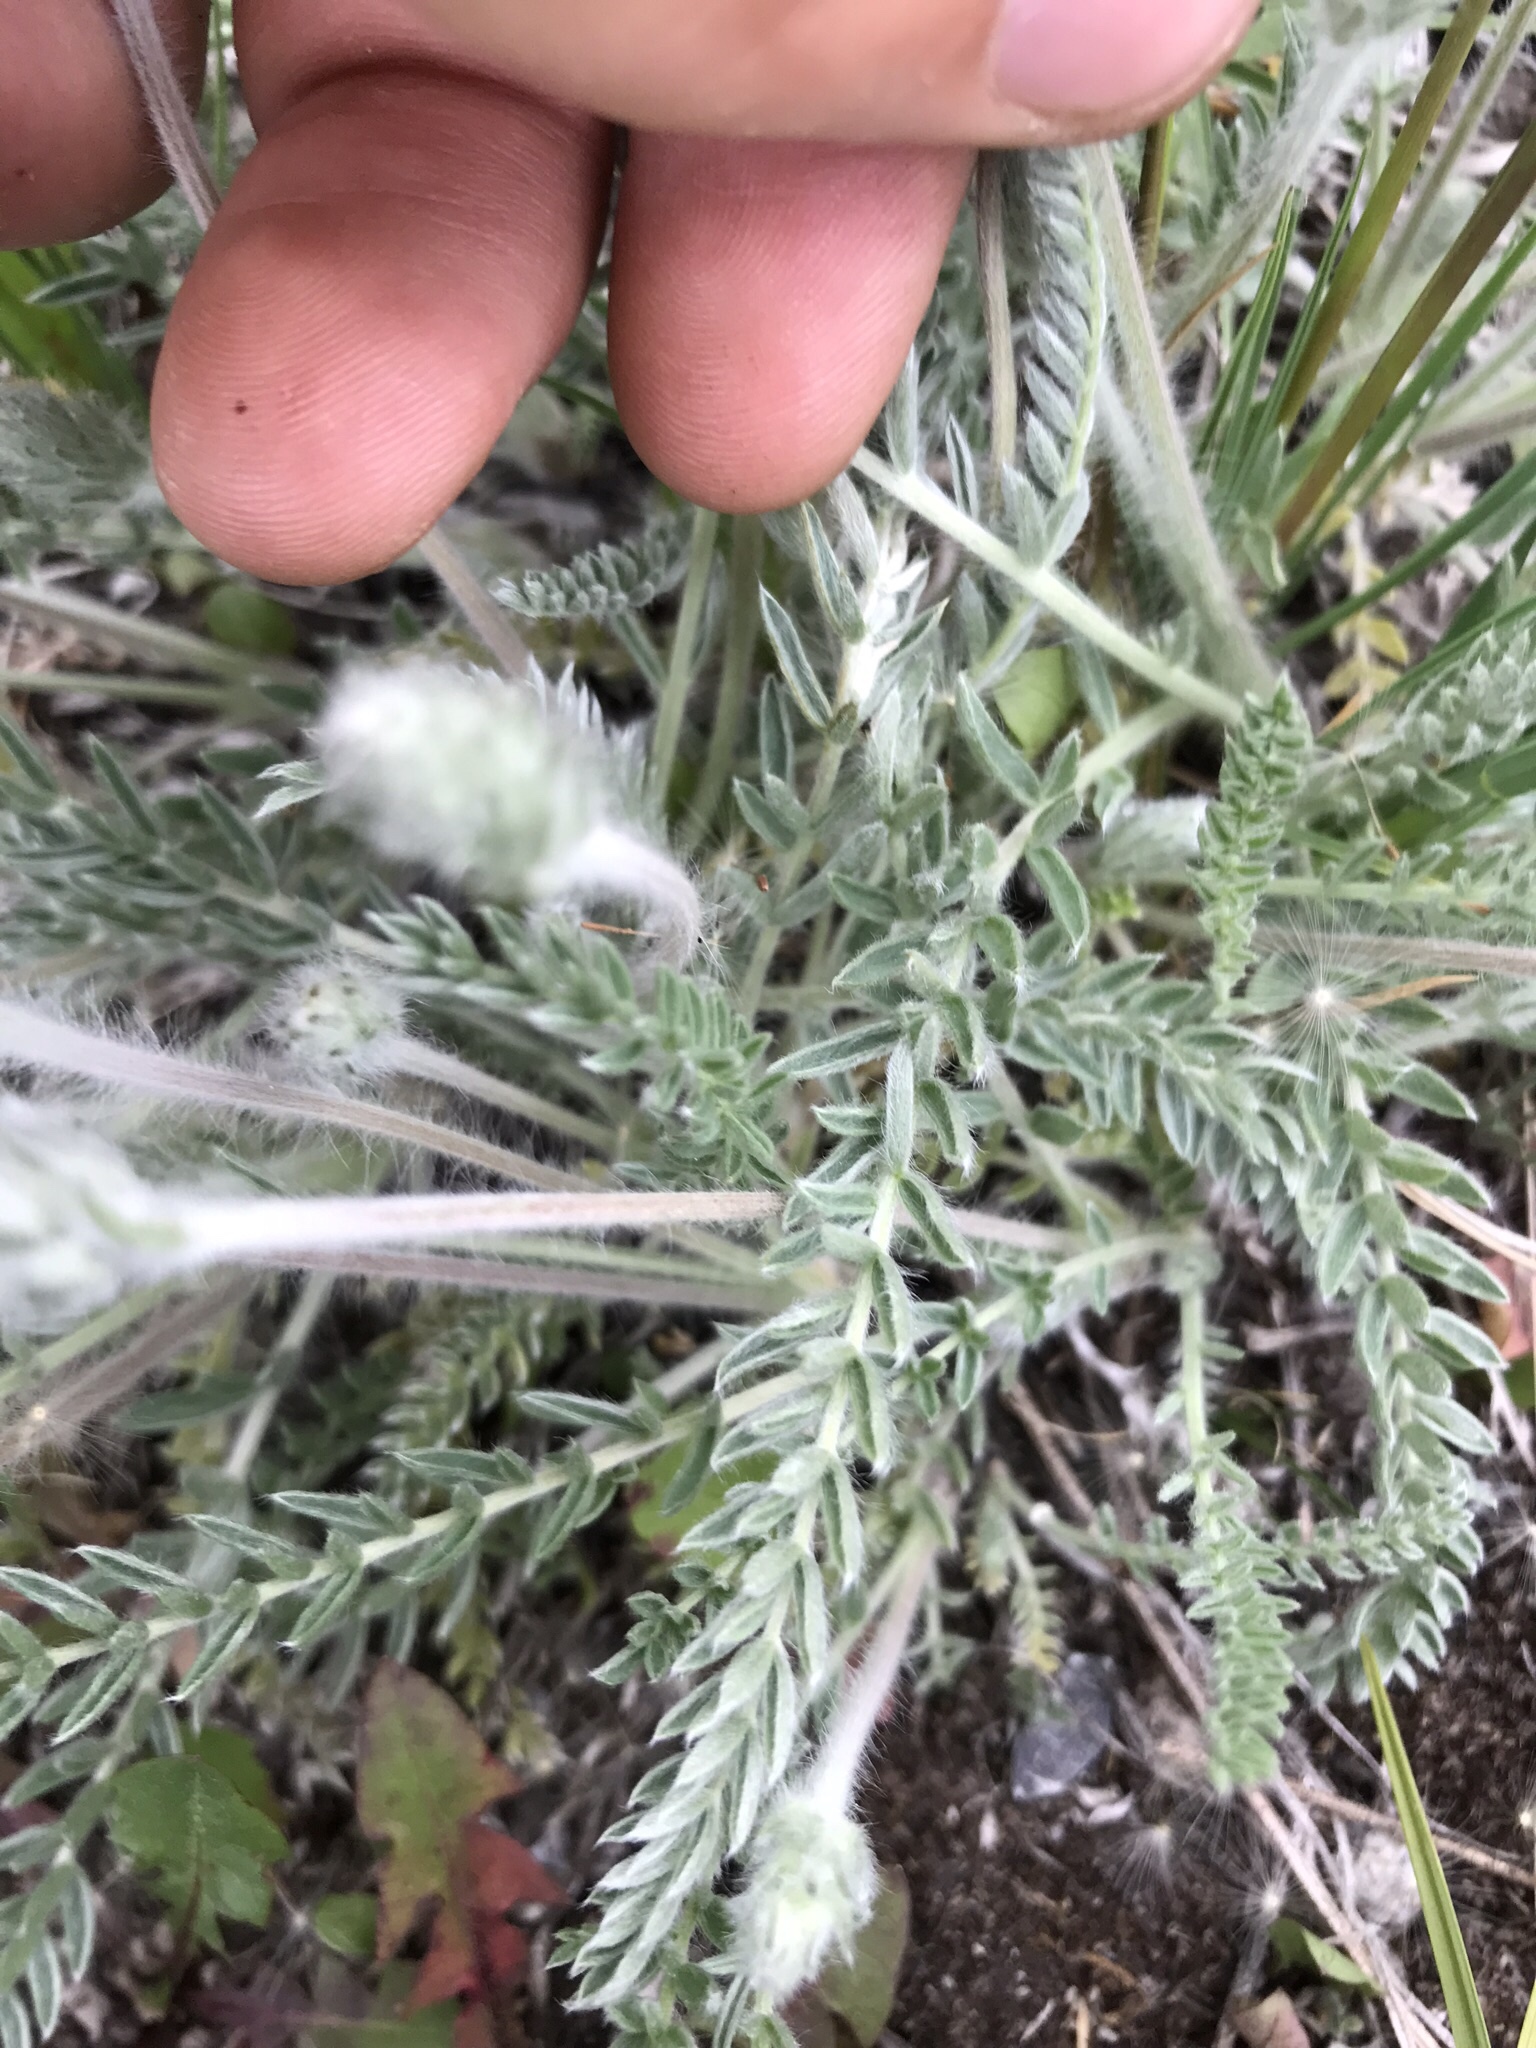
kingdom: Plantae
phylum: Tracheophyta
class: Magnoliopsida
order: Fabales
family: Fabaceae
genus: Oxytropis
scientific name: Oxytropis splendens
